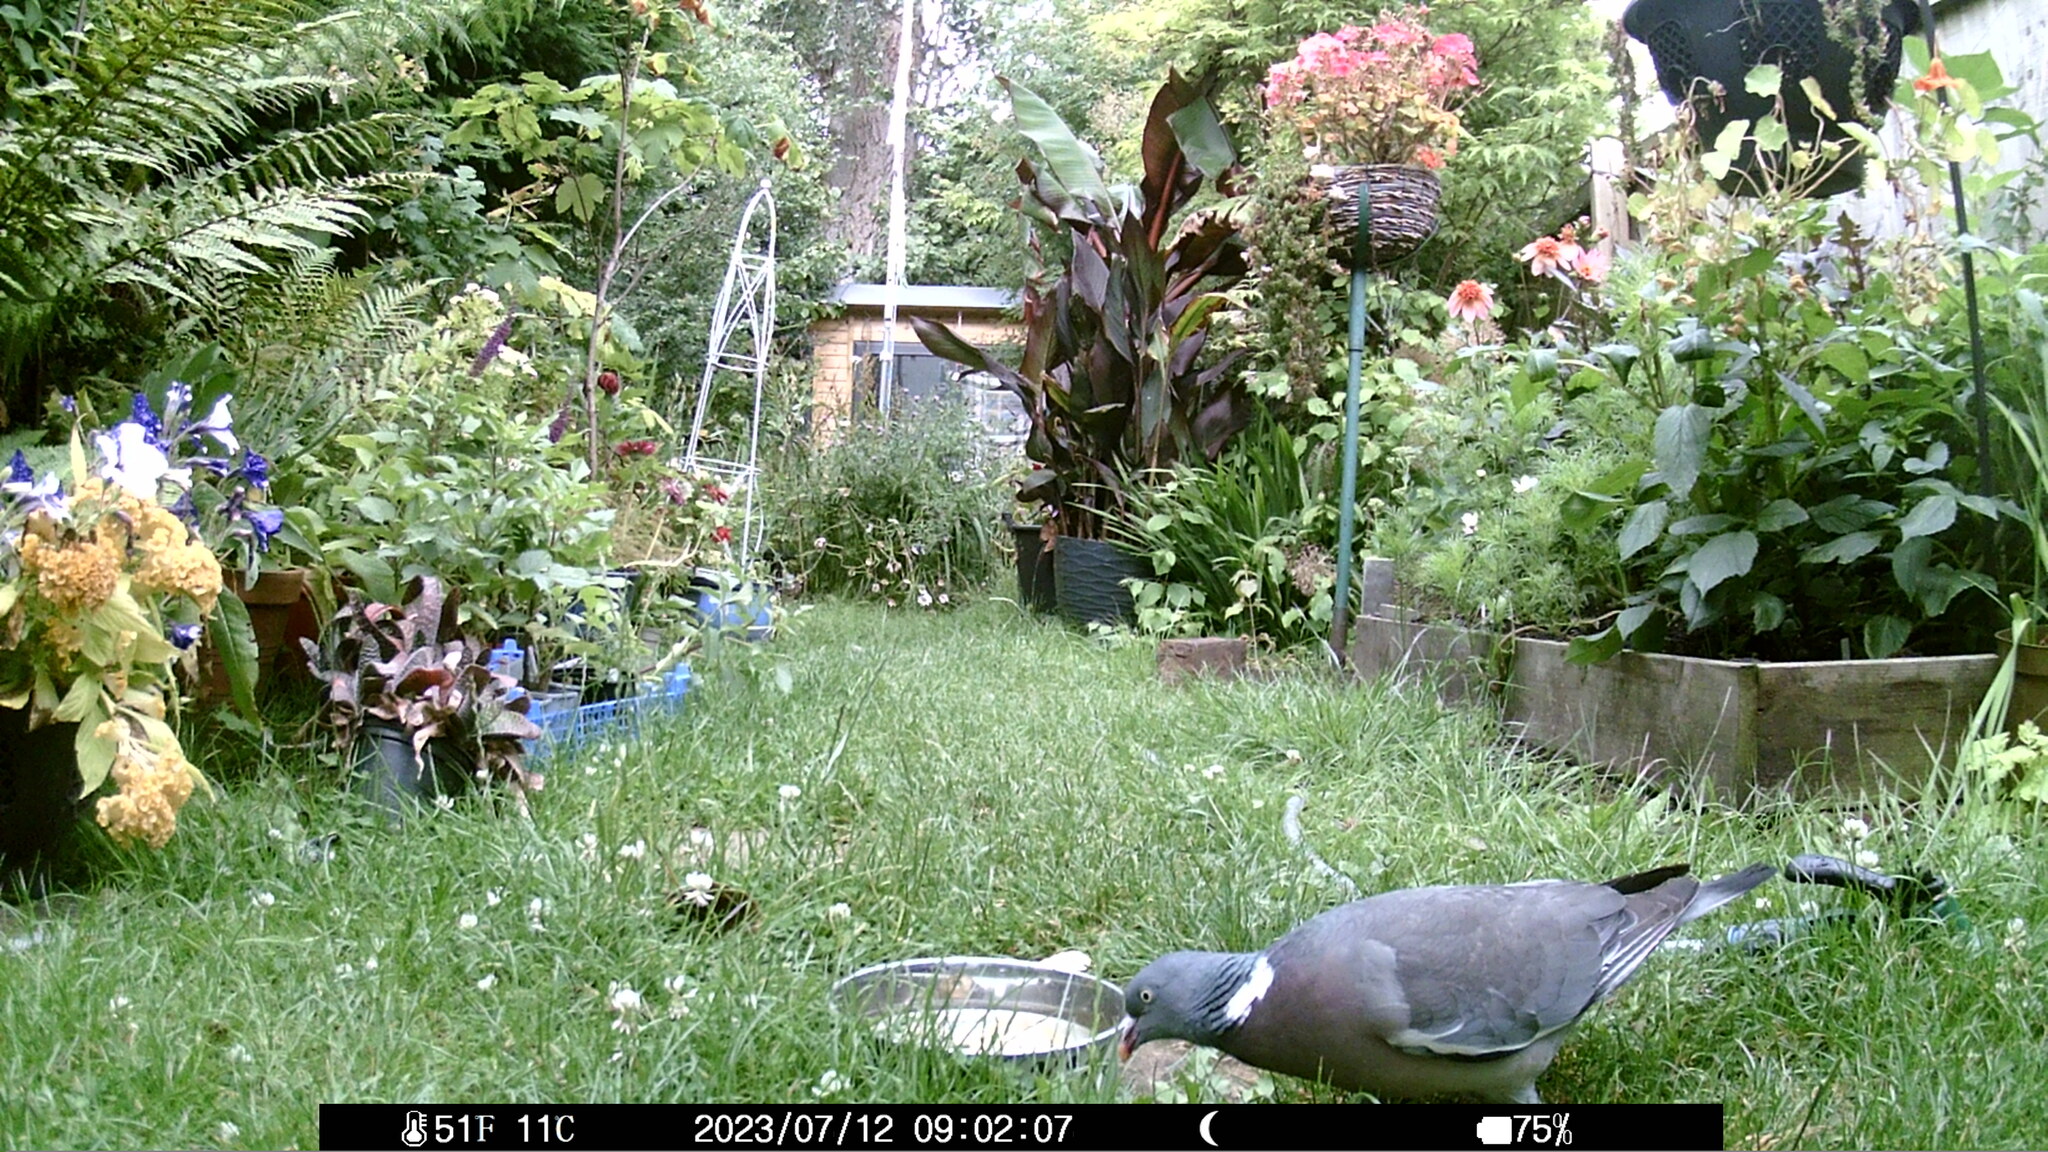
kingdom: Animalia
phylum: Chordata
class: Aves
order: Columbiformes
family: Columbidae
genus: Columba
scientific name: Columba palumbus
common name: Common wood pigeon
